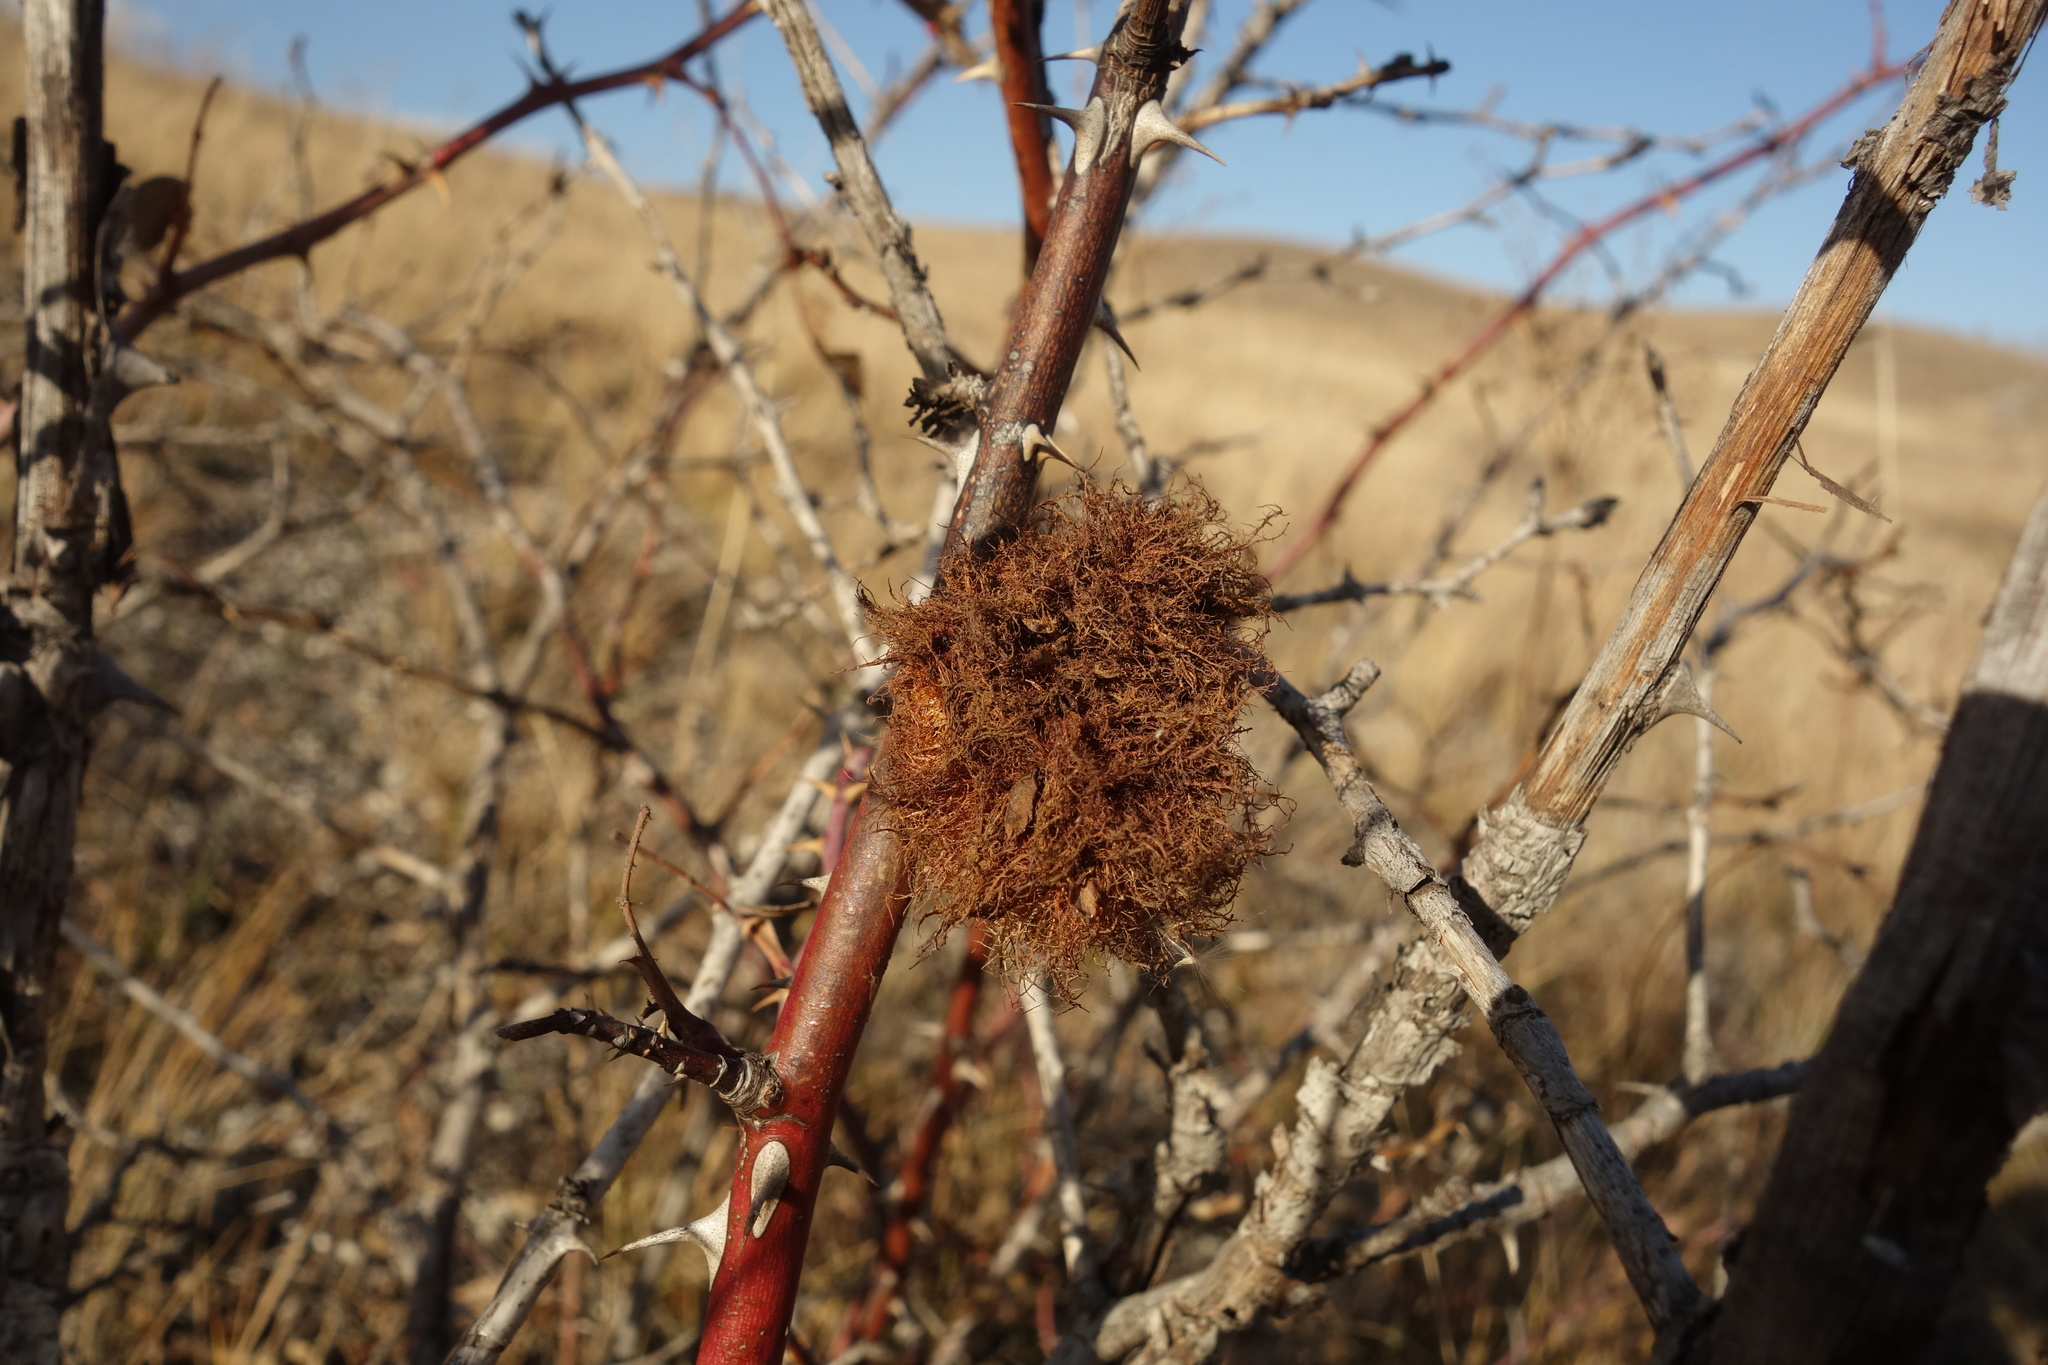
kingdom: Animalia
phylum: Arthropoda
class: Insecta
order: Hymenoptera
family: Cynipidae
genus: Diplolepis
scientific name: Diplolepis rosae
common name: Bedeguar gall
